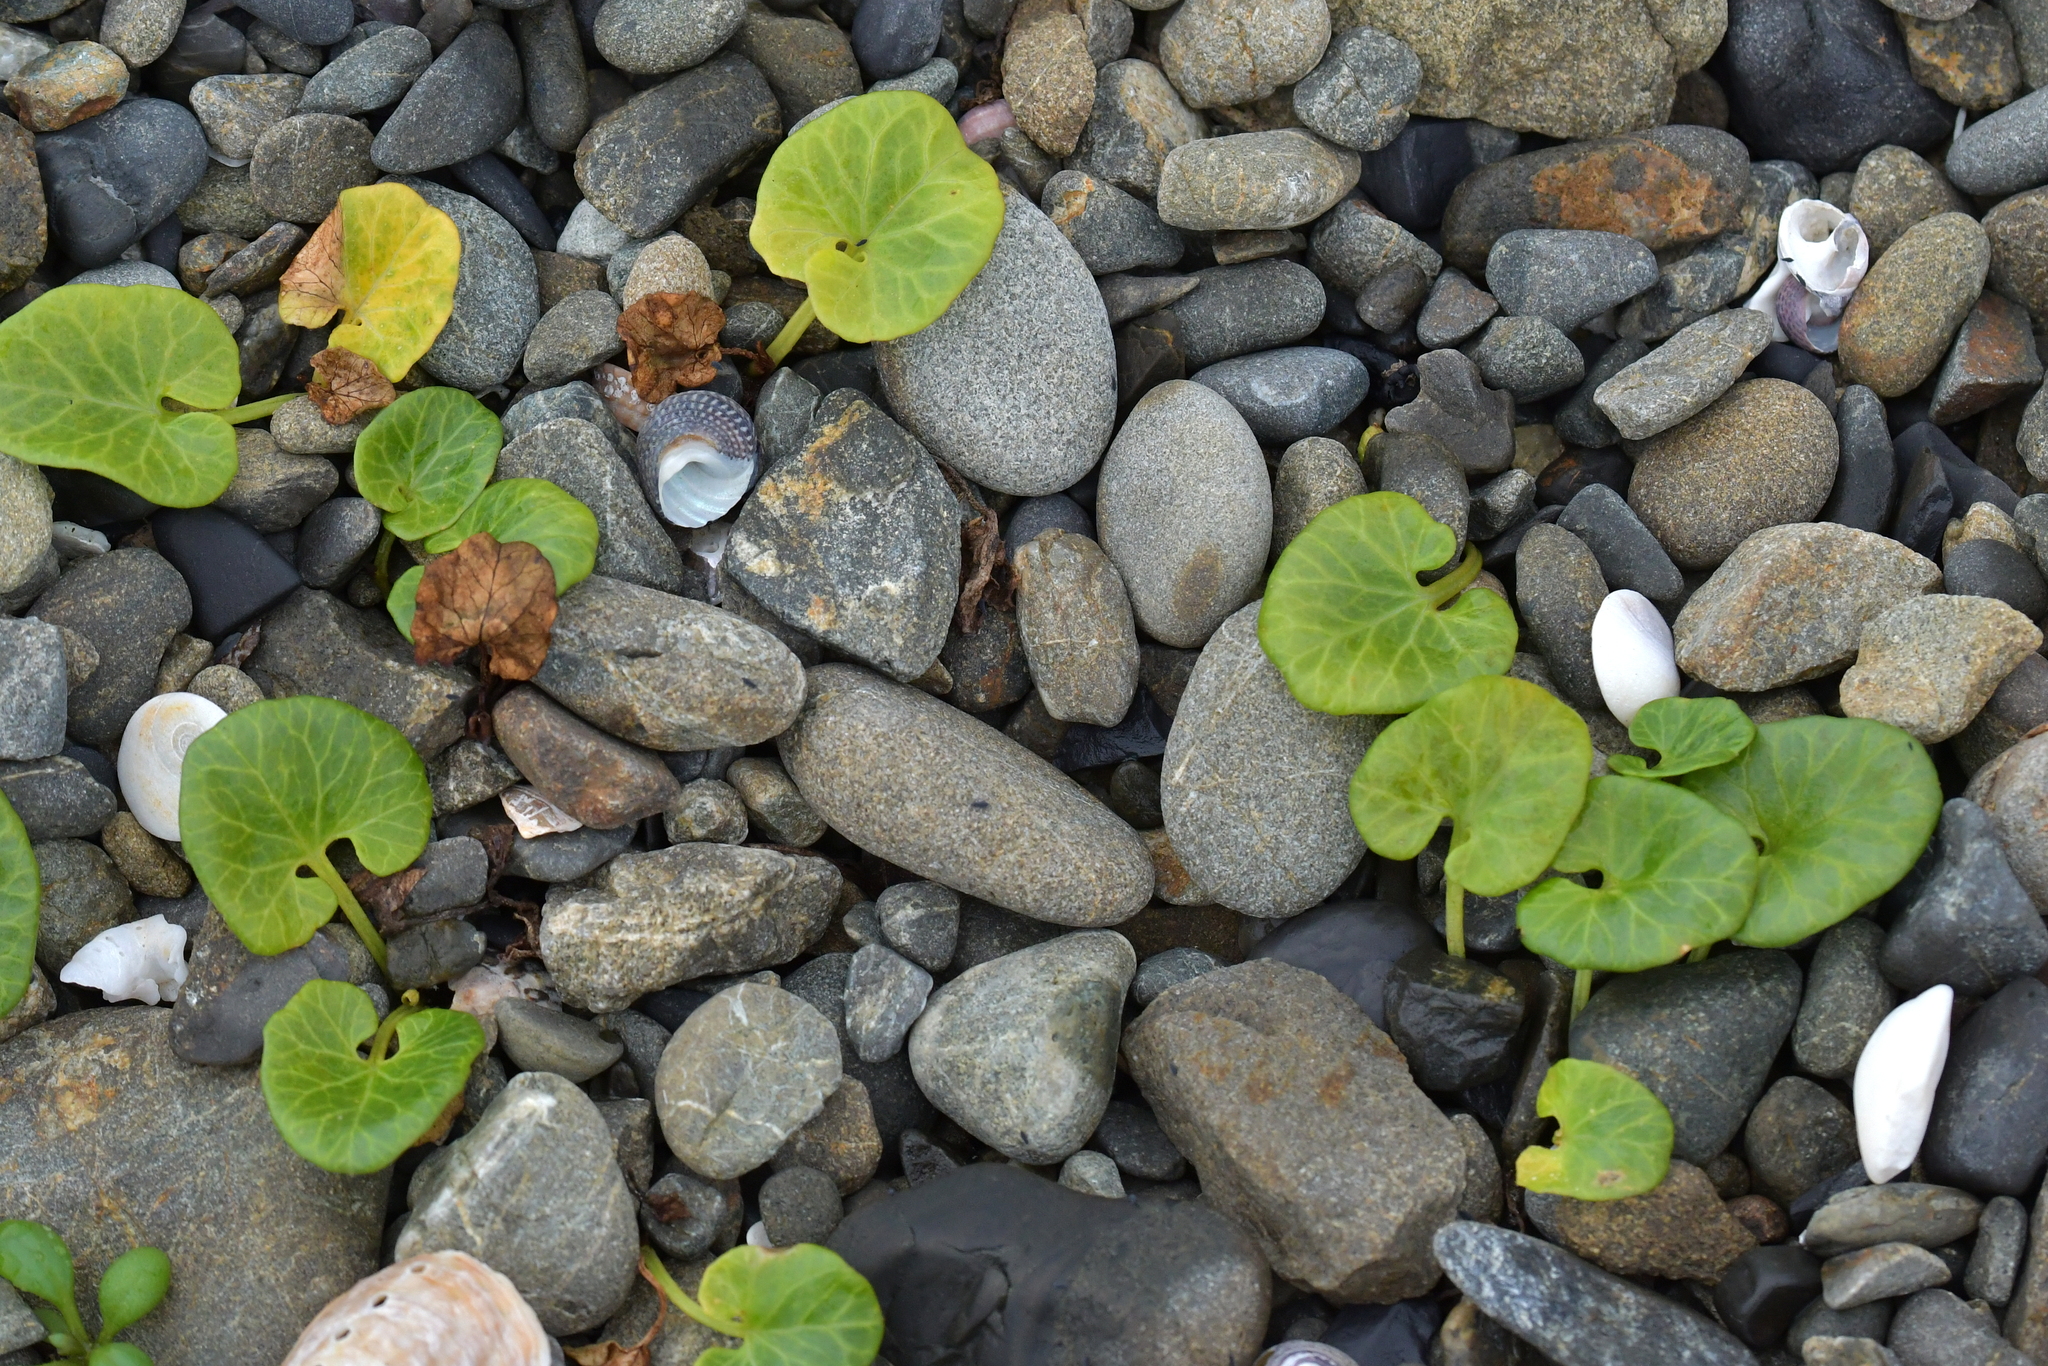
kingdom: Plantae
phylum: Tracheophyta
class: Magnoliopsida
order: Solanales
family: Convolvulaceae
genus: Calystegia
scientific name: Calystegia soldanella
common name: Sea bindweed
